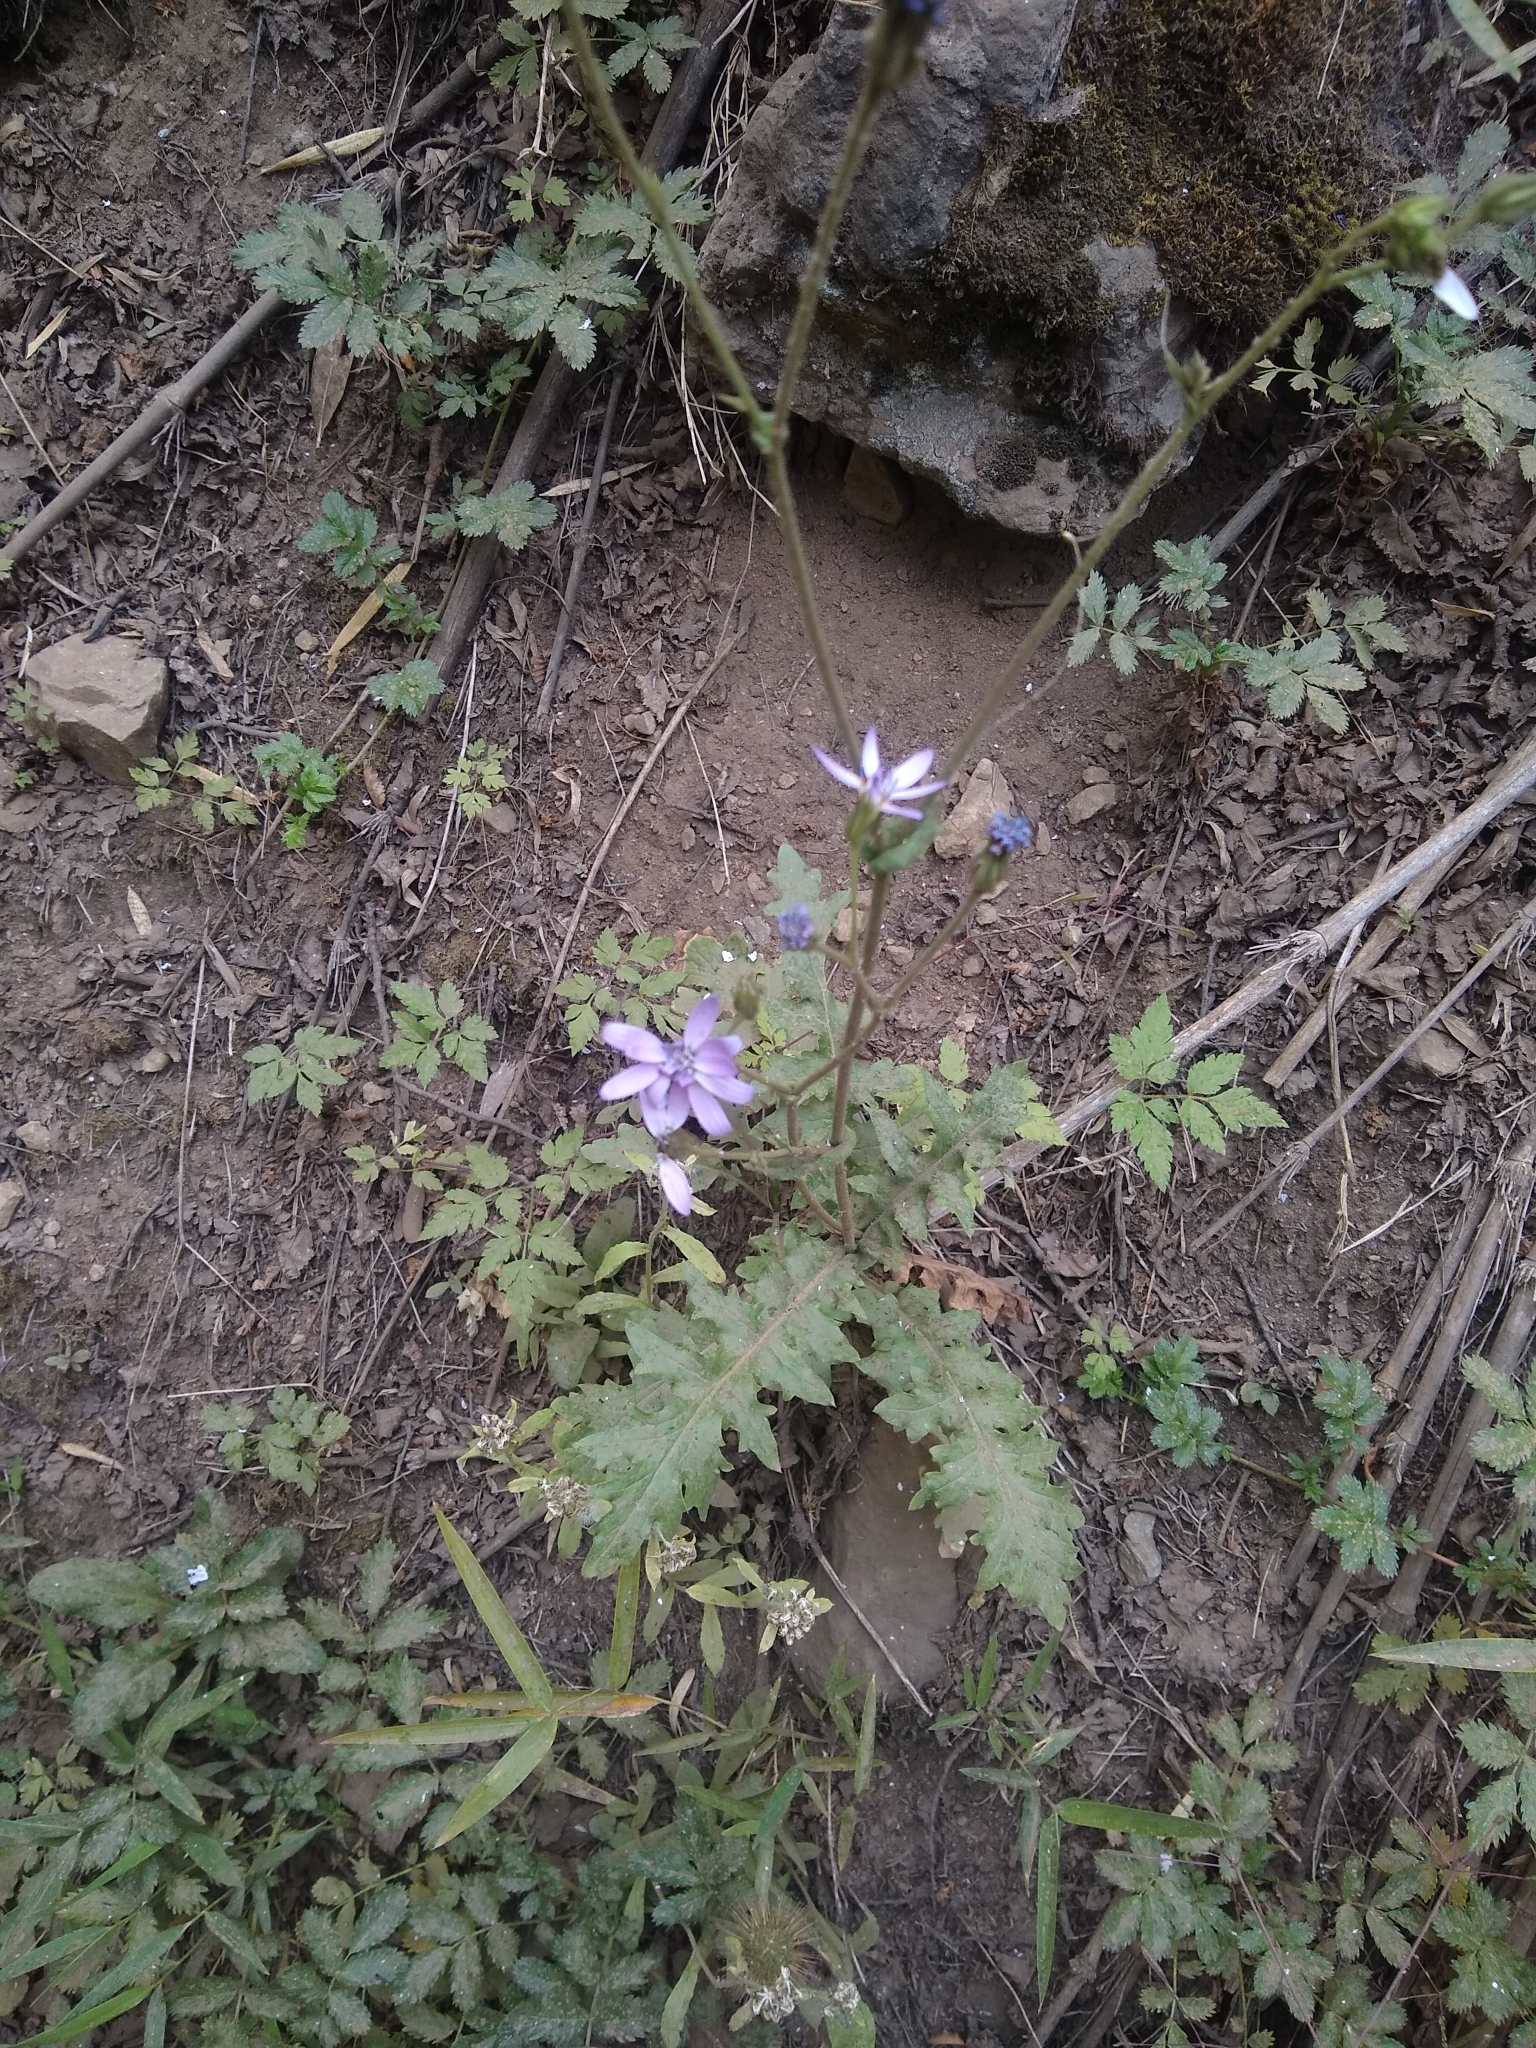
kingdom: Plantae
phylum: Tracheophyta
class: Magnoliopsida
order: Asterales
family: Asteraceae
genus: Leucheria
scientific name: Leucheria glacialis
